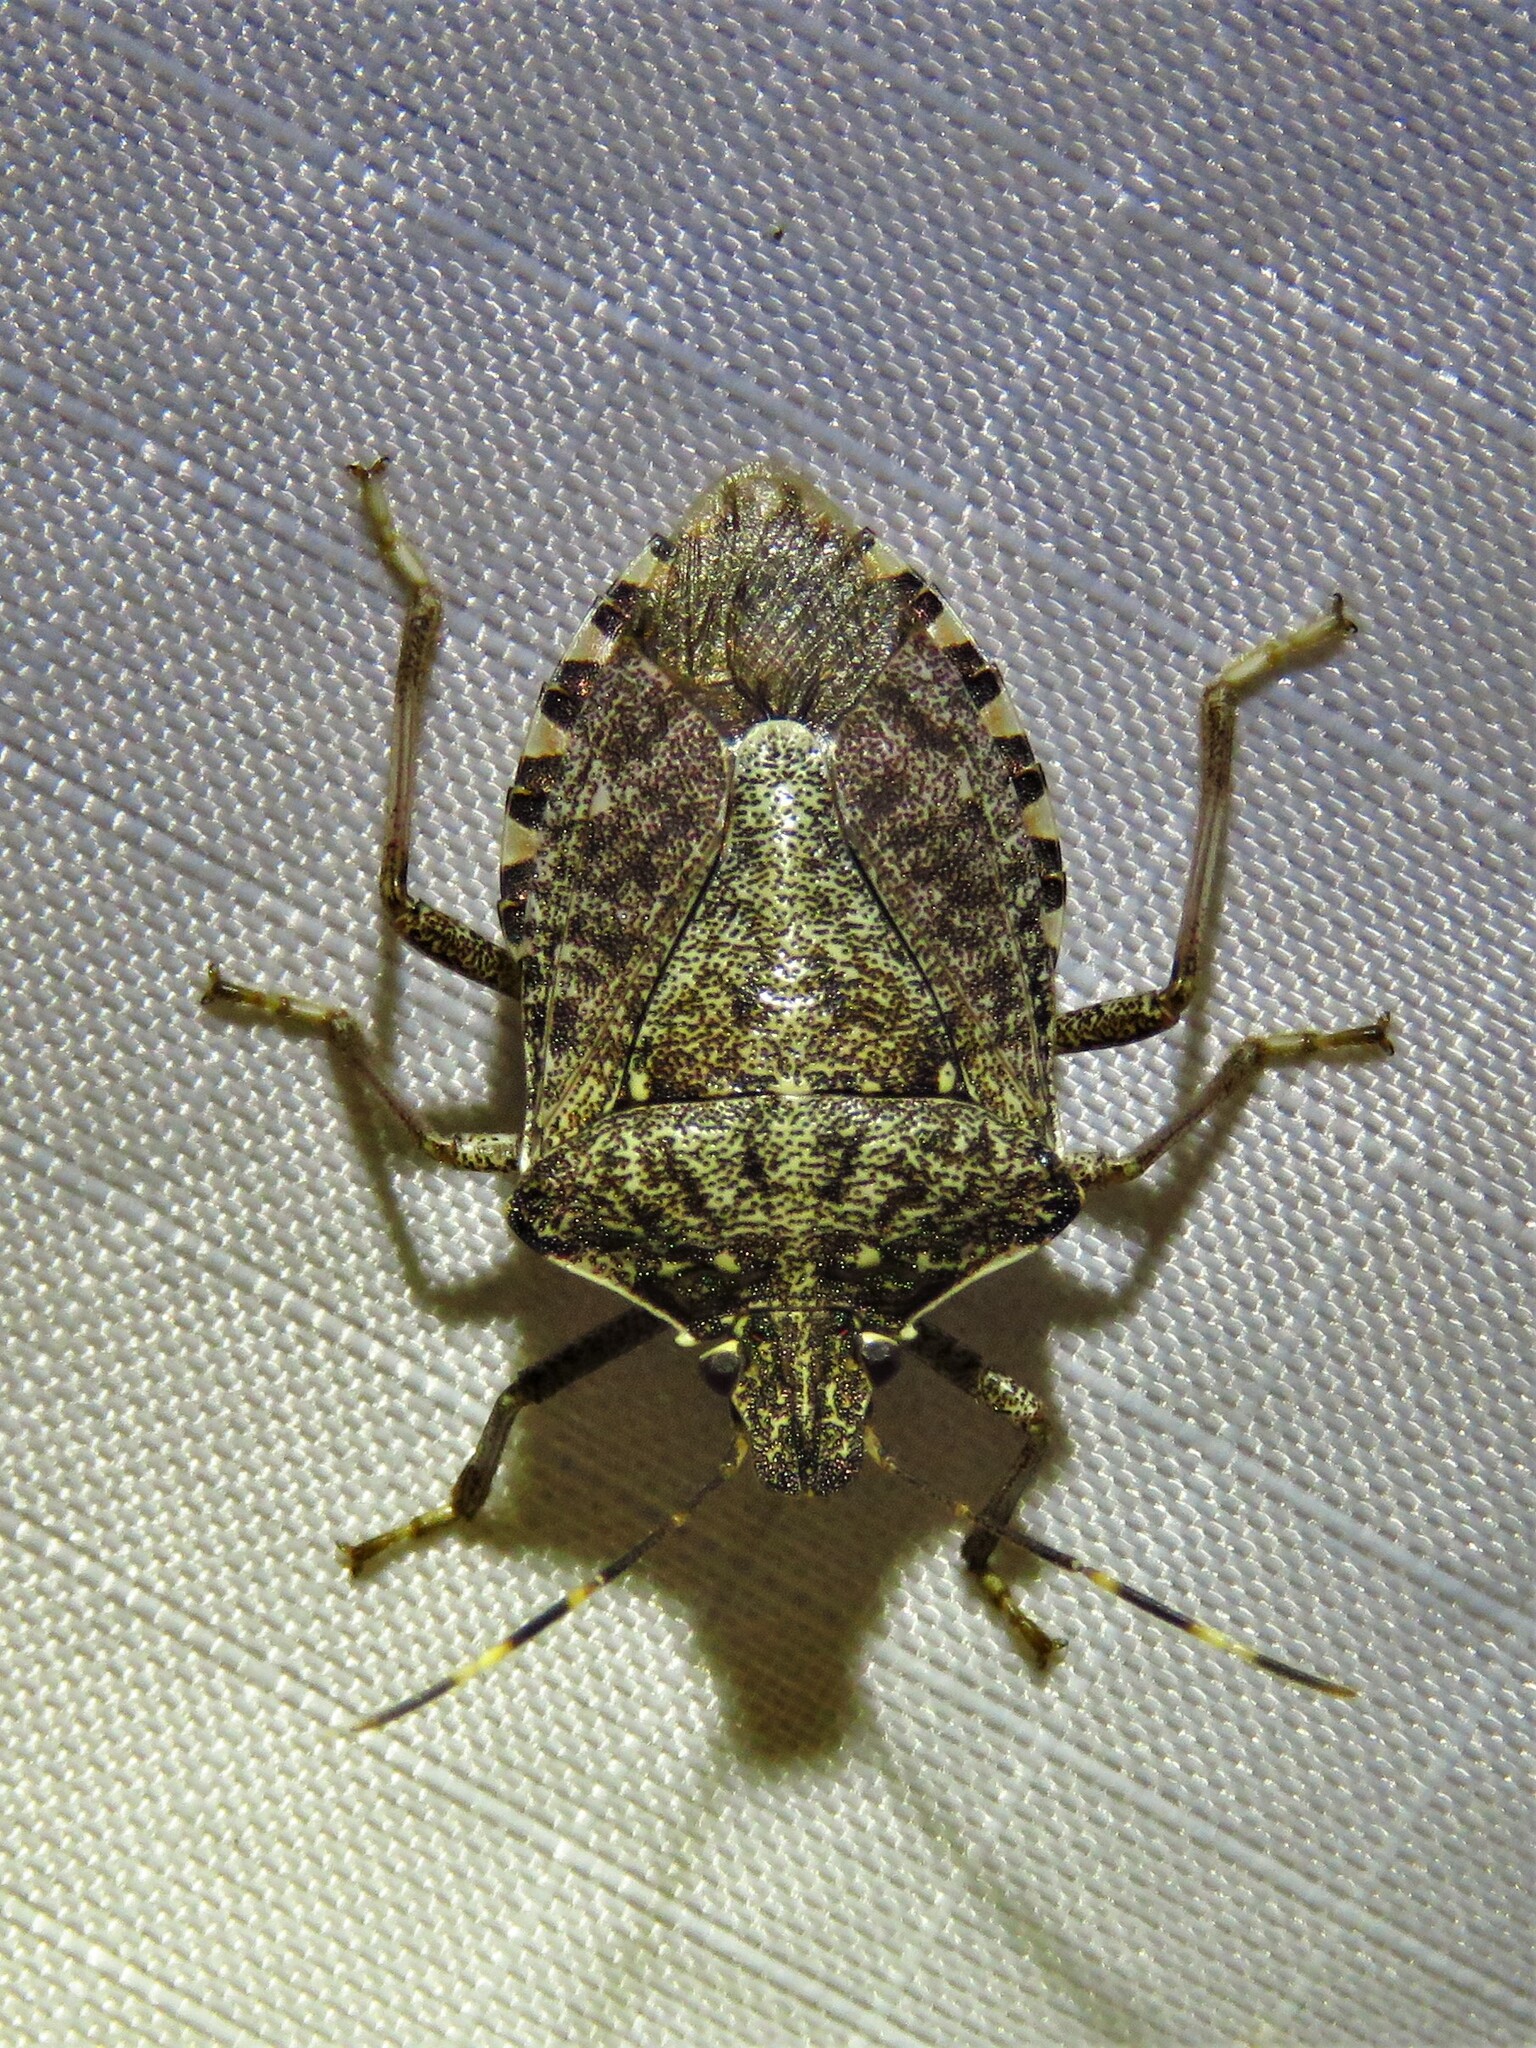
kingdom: Animalia
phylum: Arthropoda
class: Insecta
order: Hemiptera
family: Pentatomidae
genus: Halyomorpha
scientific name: Halyomorpha halys
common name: Brown marmorated stink bug
